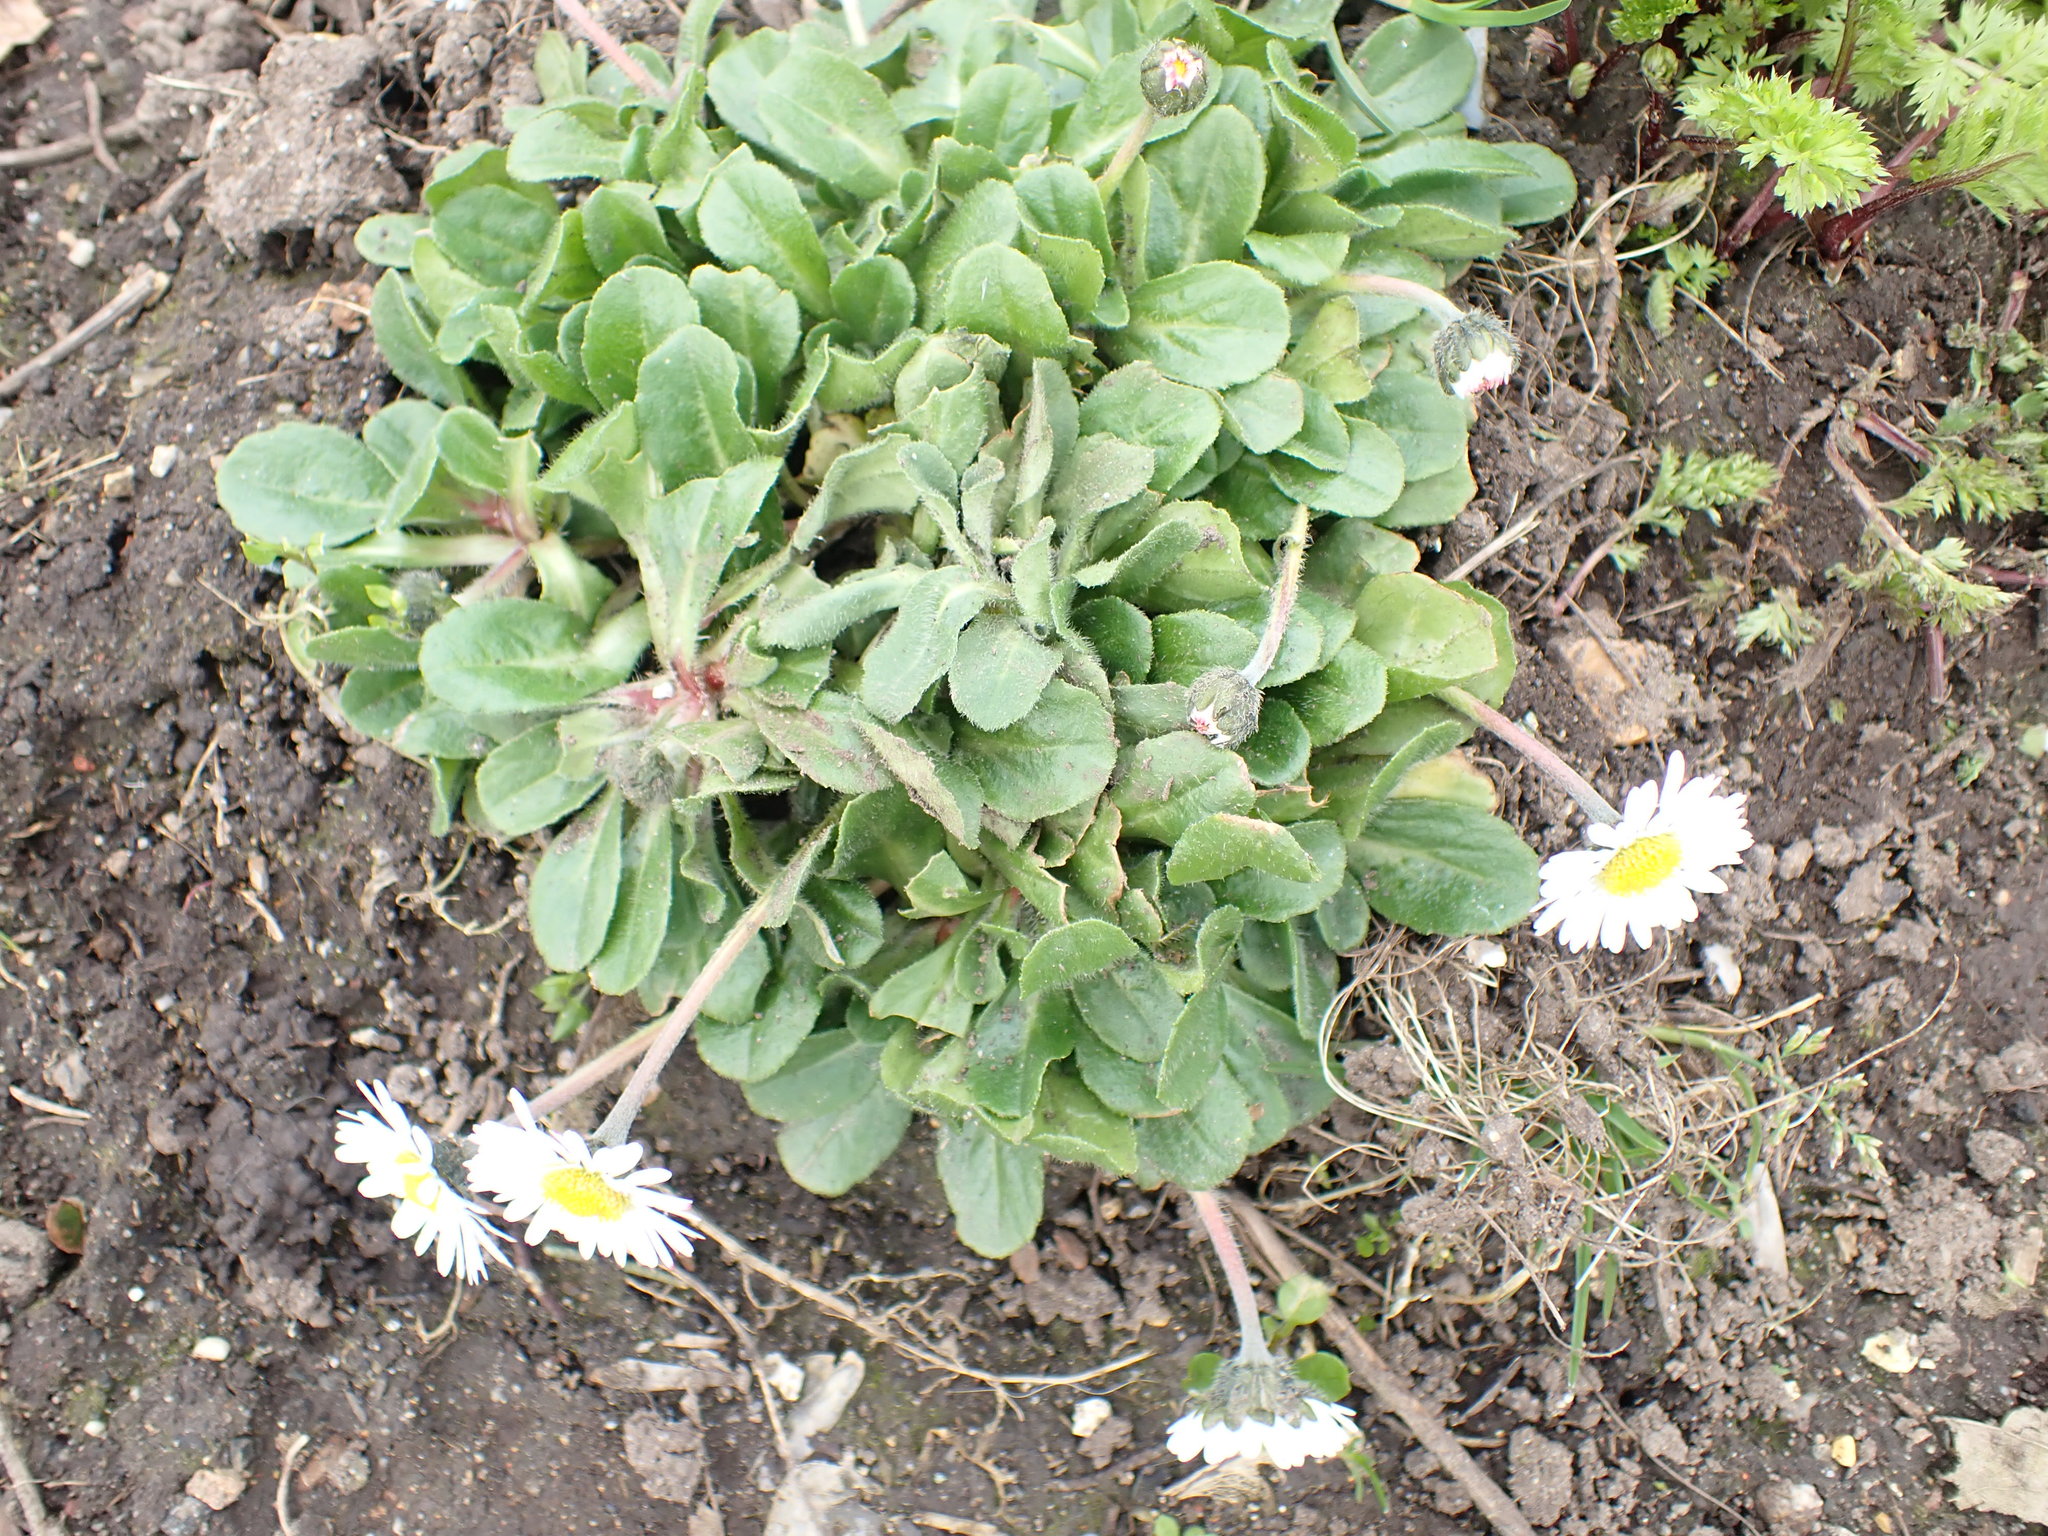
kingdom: Plantae
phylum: Tracheophyta
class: Magnoliopsida
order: Asterales
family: Asteraceae
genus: Bellis
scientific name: Bellis perennis
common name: Lawndaisy
